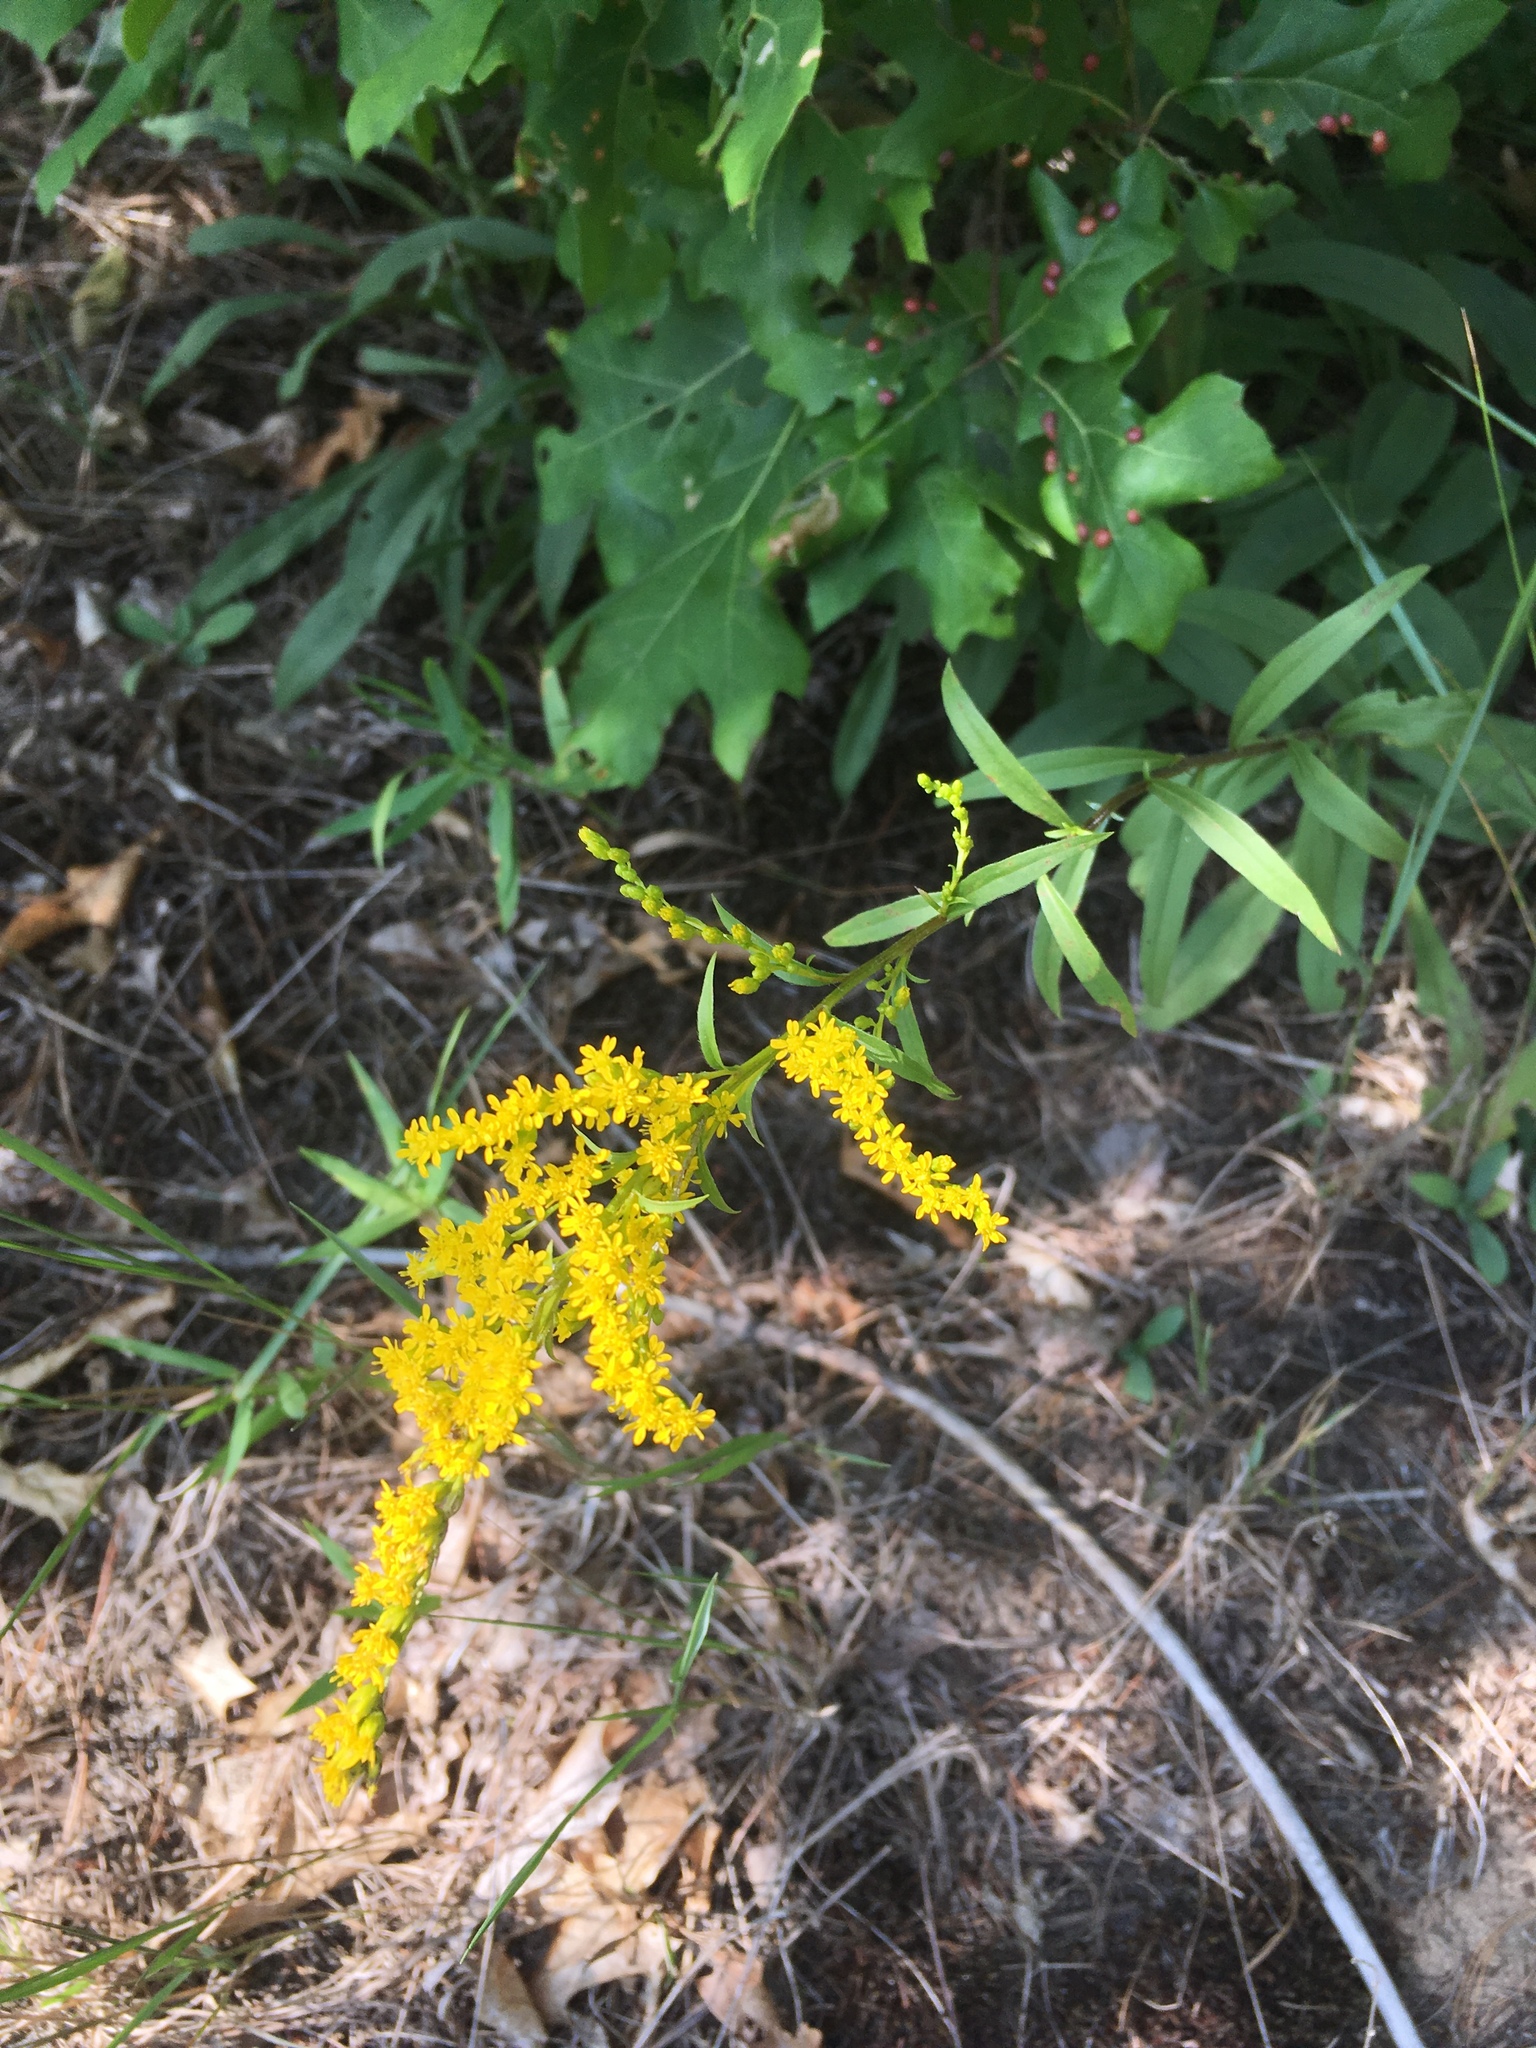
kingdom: Plantae
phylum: Tracheophyta
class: Magnoliopsida
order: Asterales
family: Asteraceae
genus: Solidago
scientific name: Solidago juncea
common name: Early goldenrod
